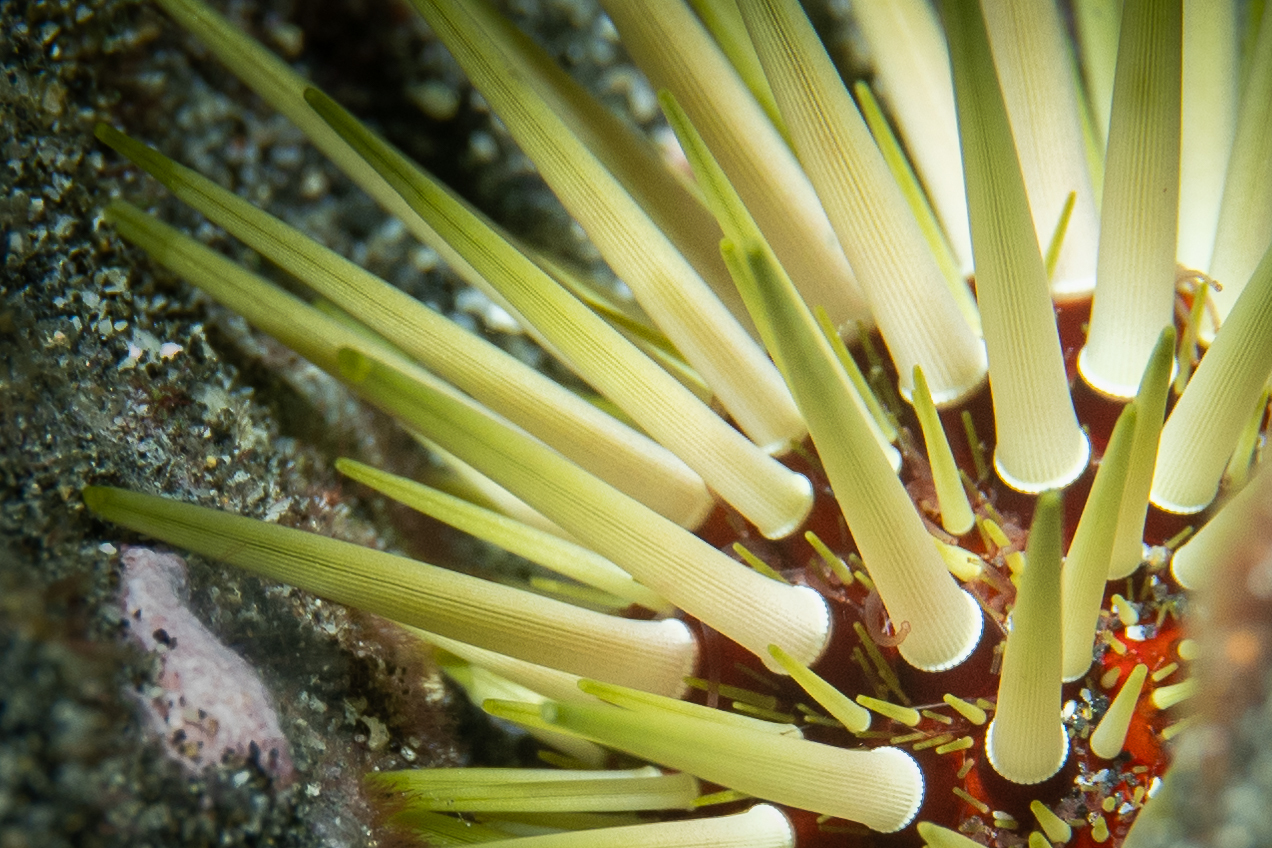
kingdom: Animalia
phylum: Echinodermata
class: Echinoidea
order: Camarodonta
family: Echinometridae
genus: Echinometra
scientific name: Echinometra mathaei
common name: Rock-boring urchin
